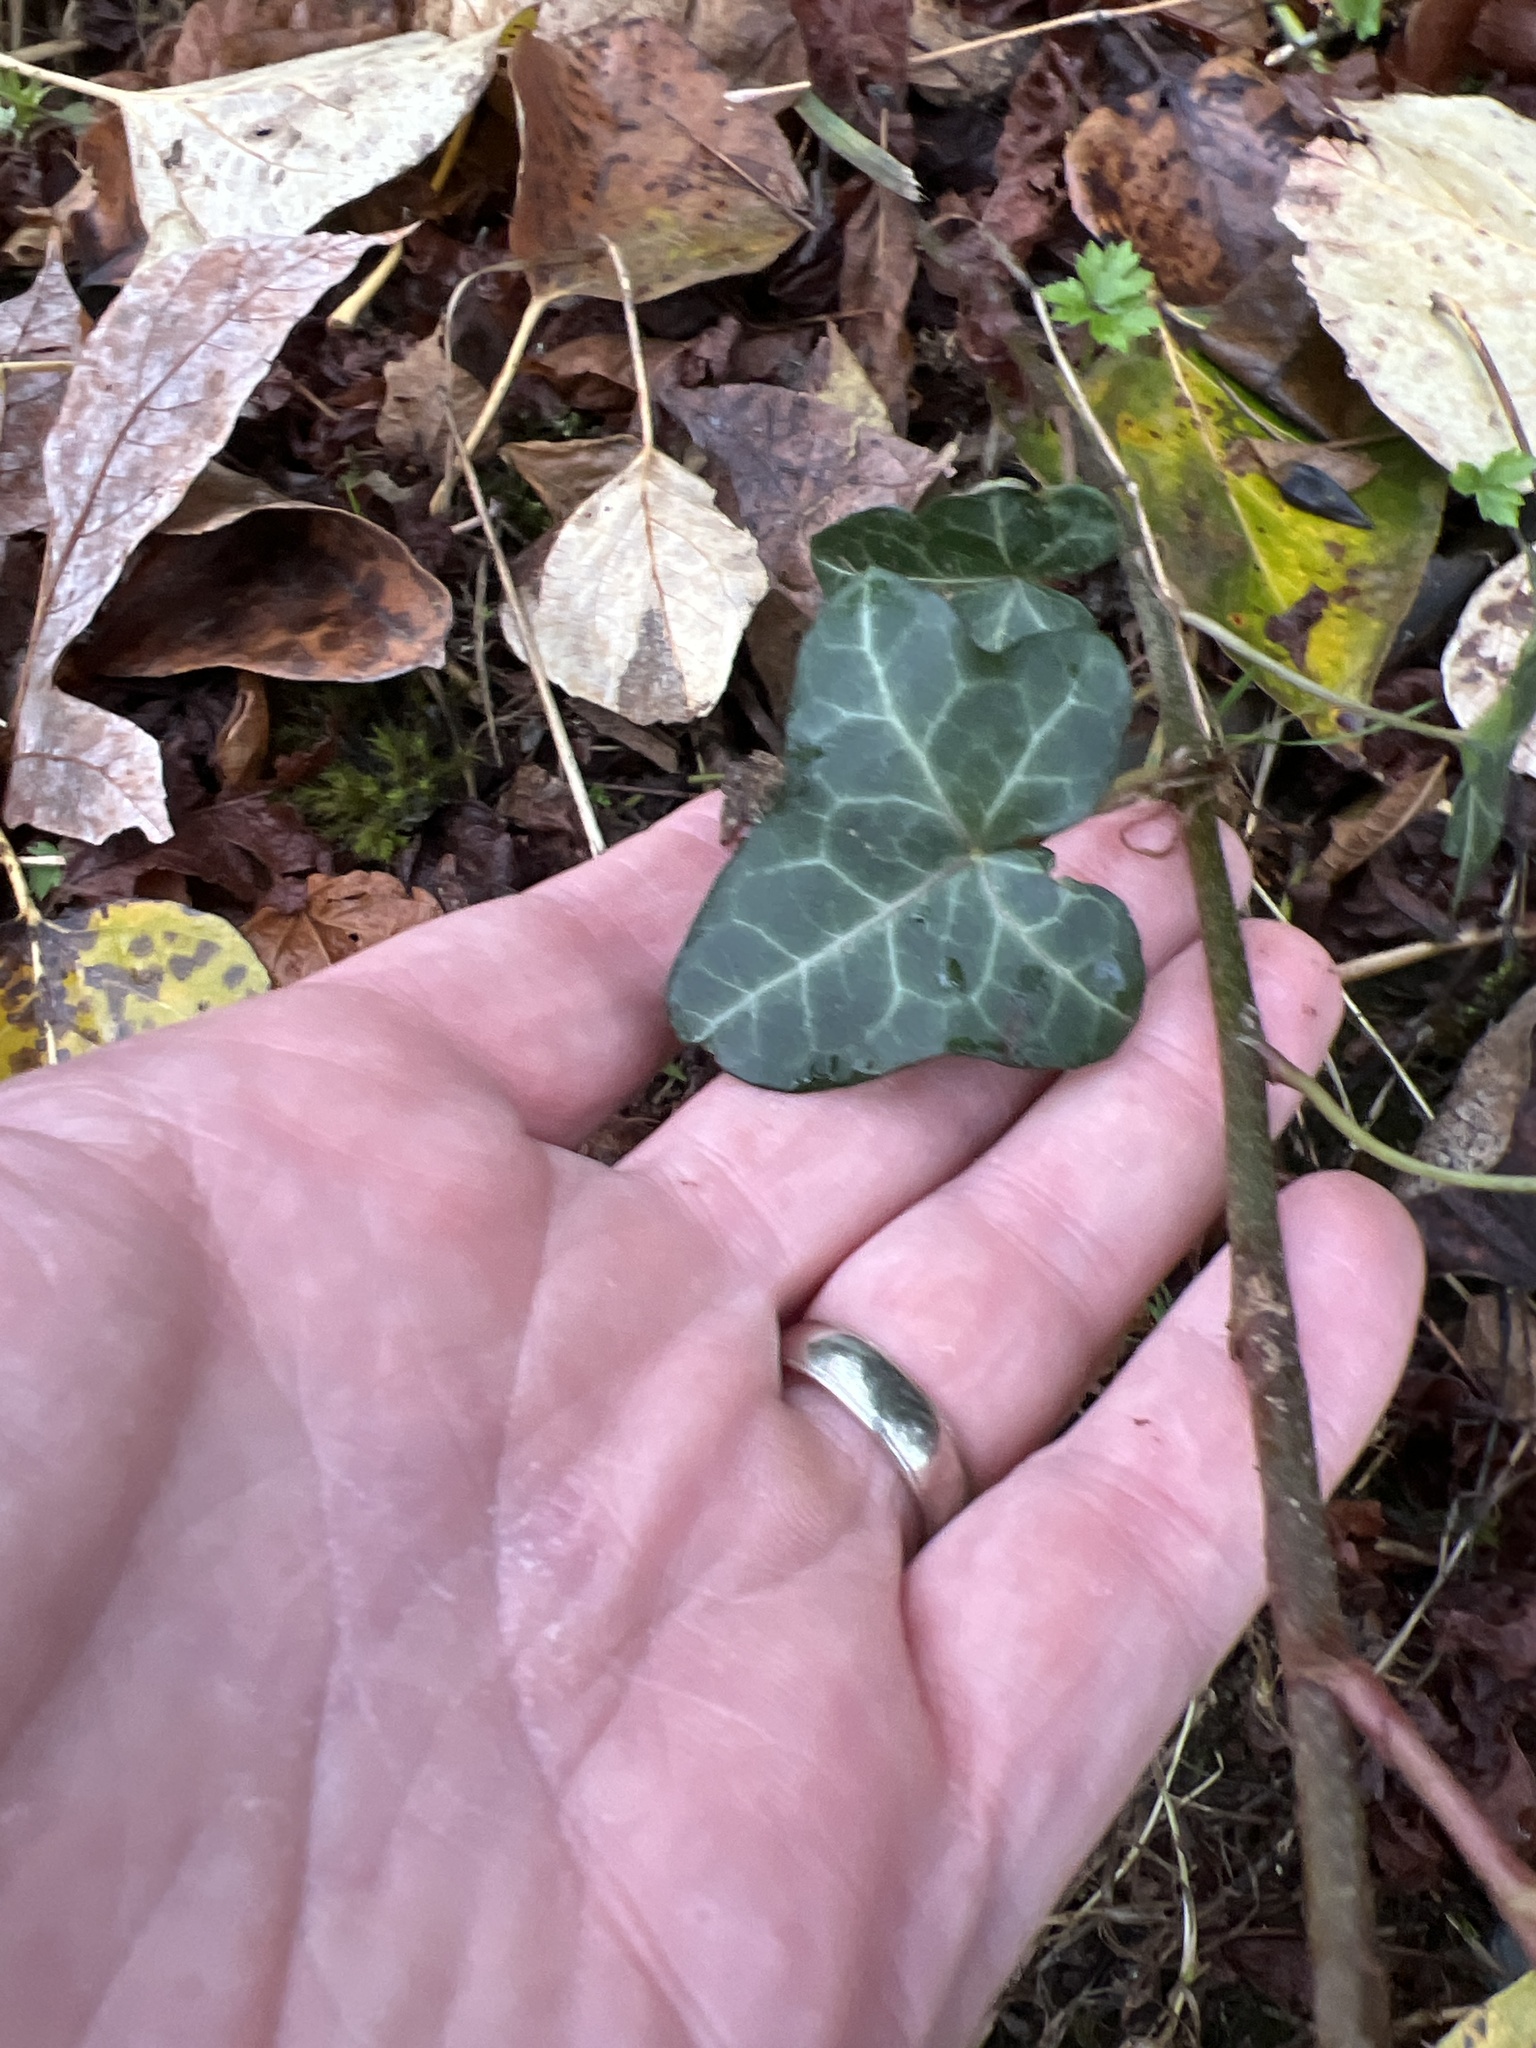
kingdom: Plantae
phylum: Tracheophyta
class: Magnoliopsida
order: Apiales
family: Araliaceae
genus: Hedera
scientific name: Hedera helix
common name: Ivy
